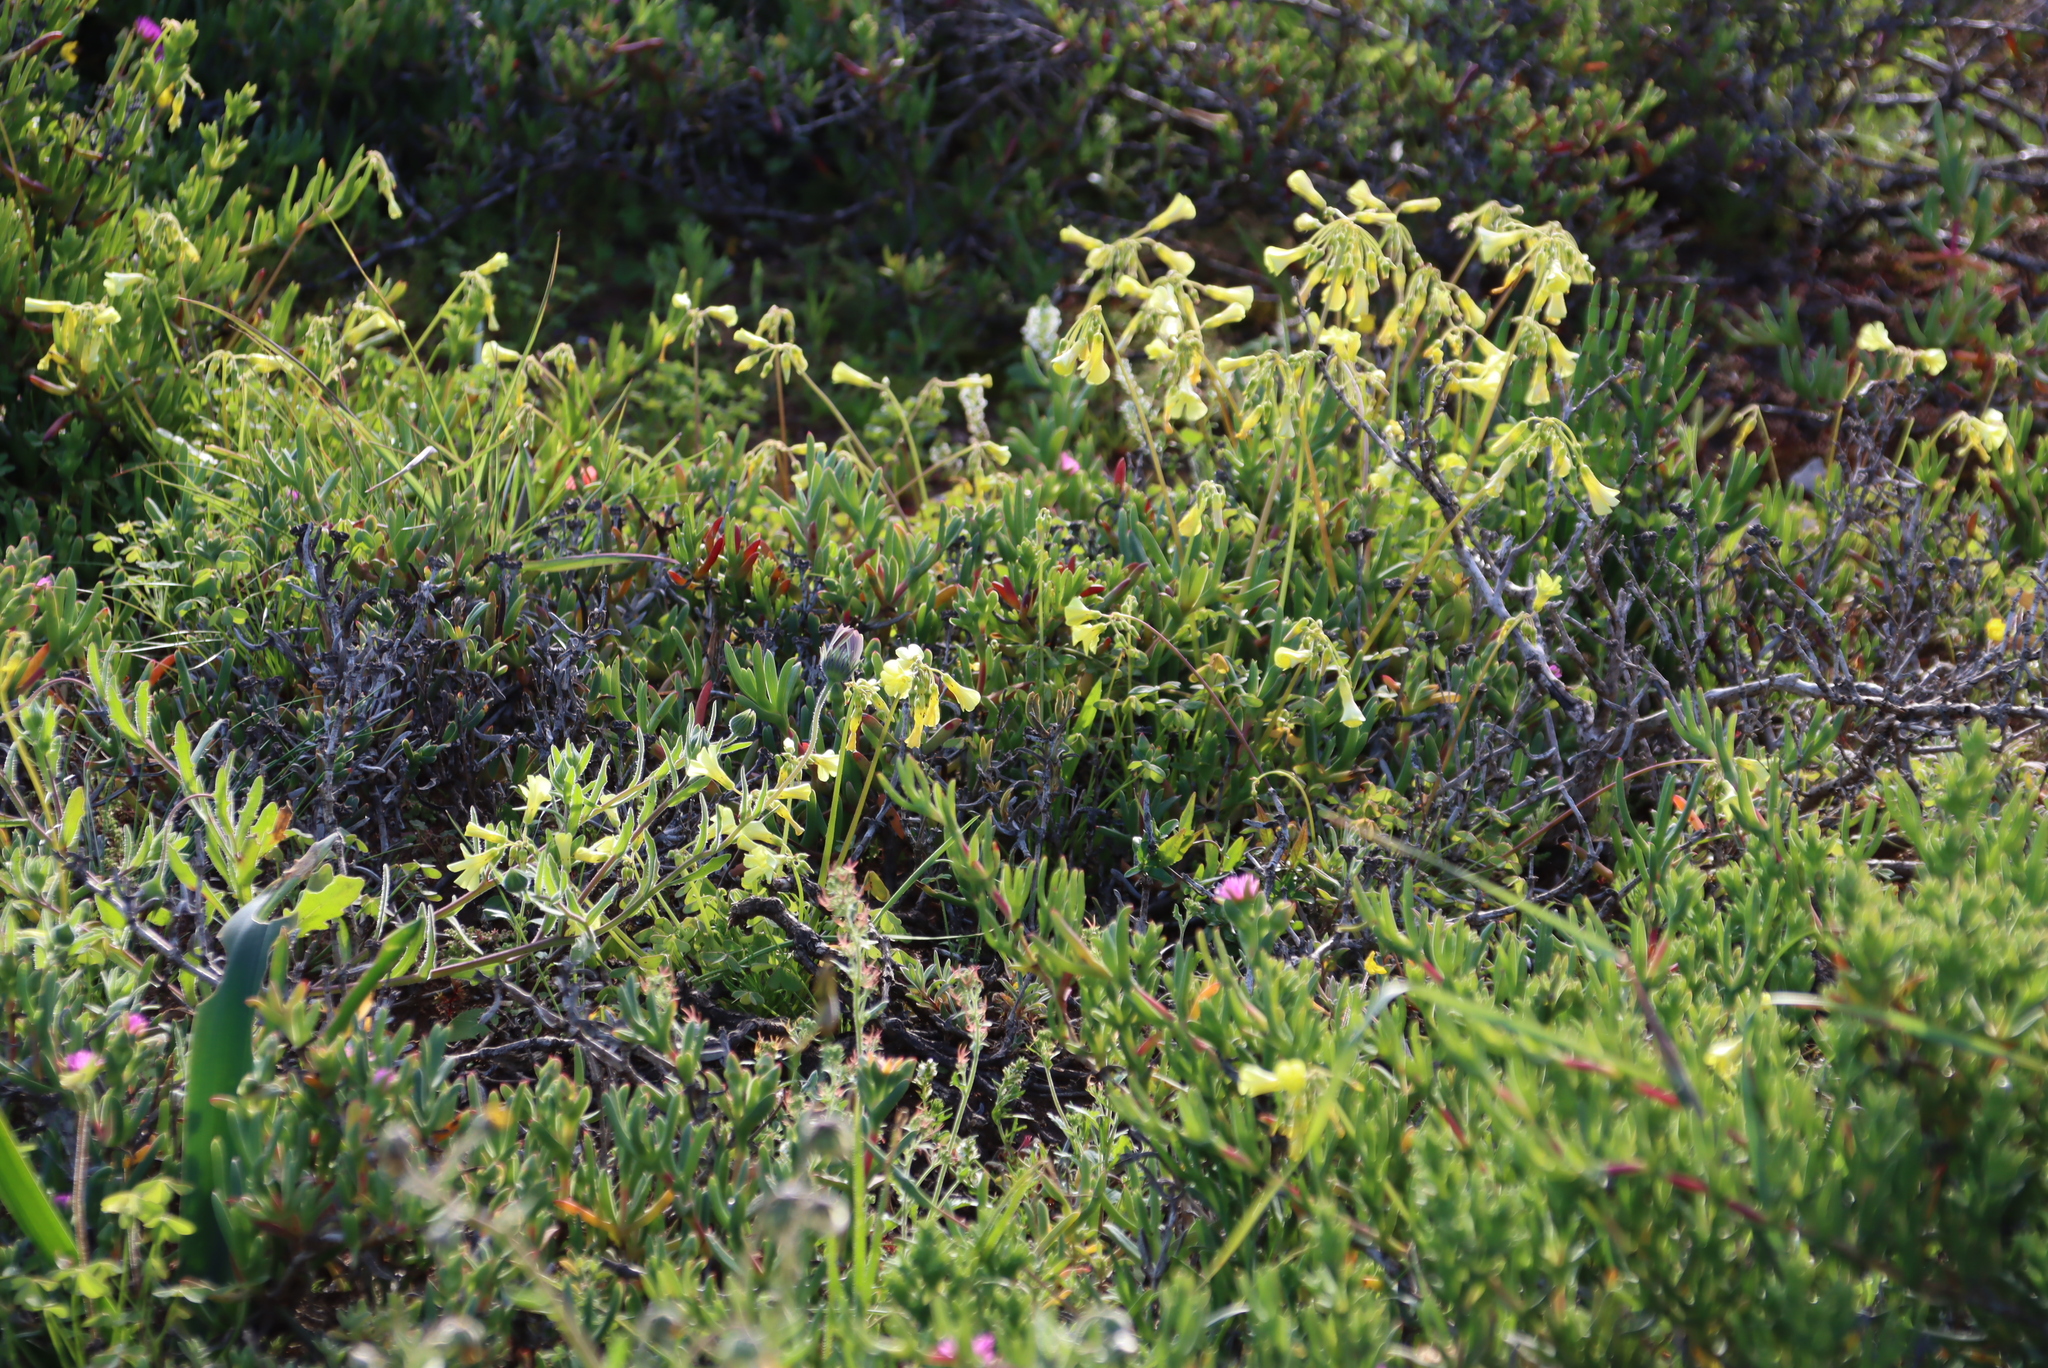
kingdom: Plantae
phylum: Tracheophyta
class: Magnoliopsida
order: Oxalidales
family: Oxalidaceae
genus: Oxalis
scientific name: Oxalis pes-caprae
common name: Bermuda-buttercup
